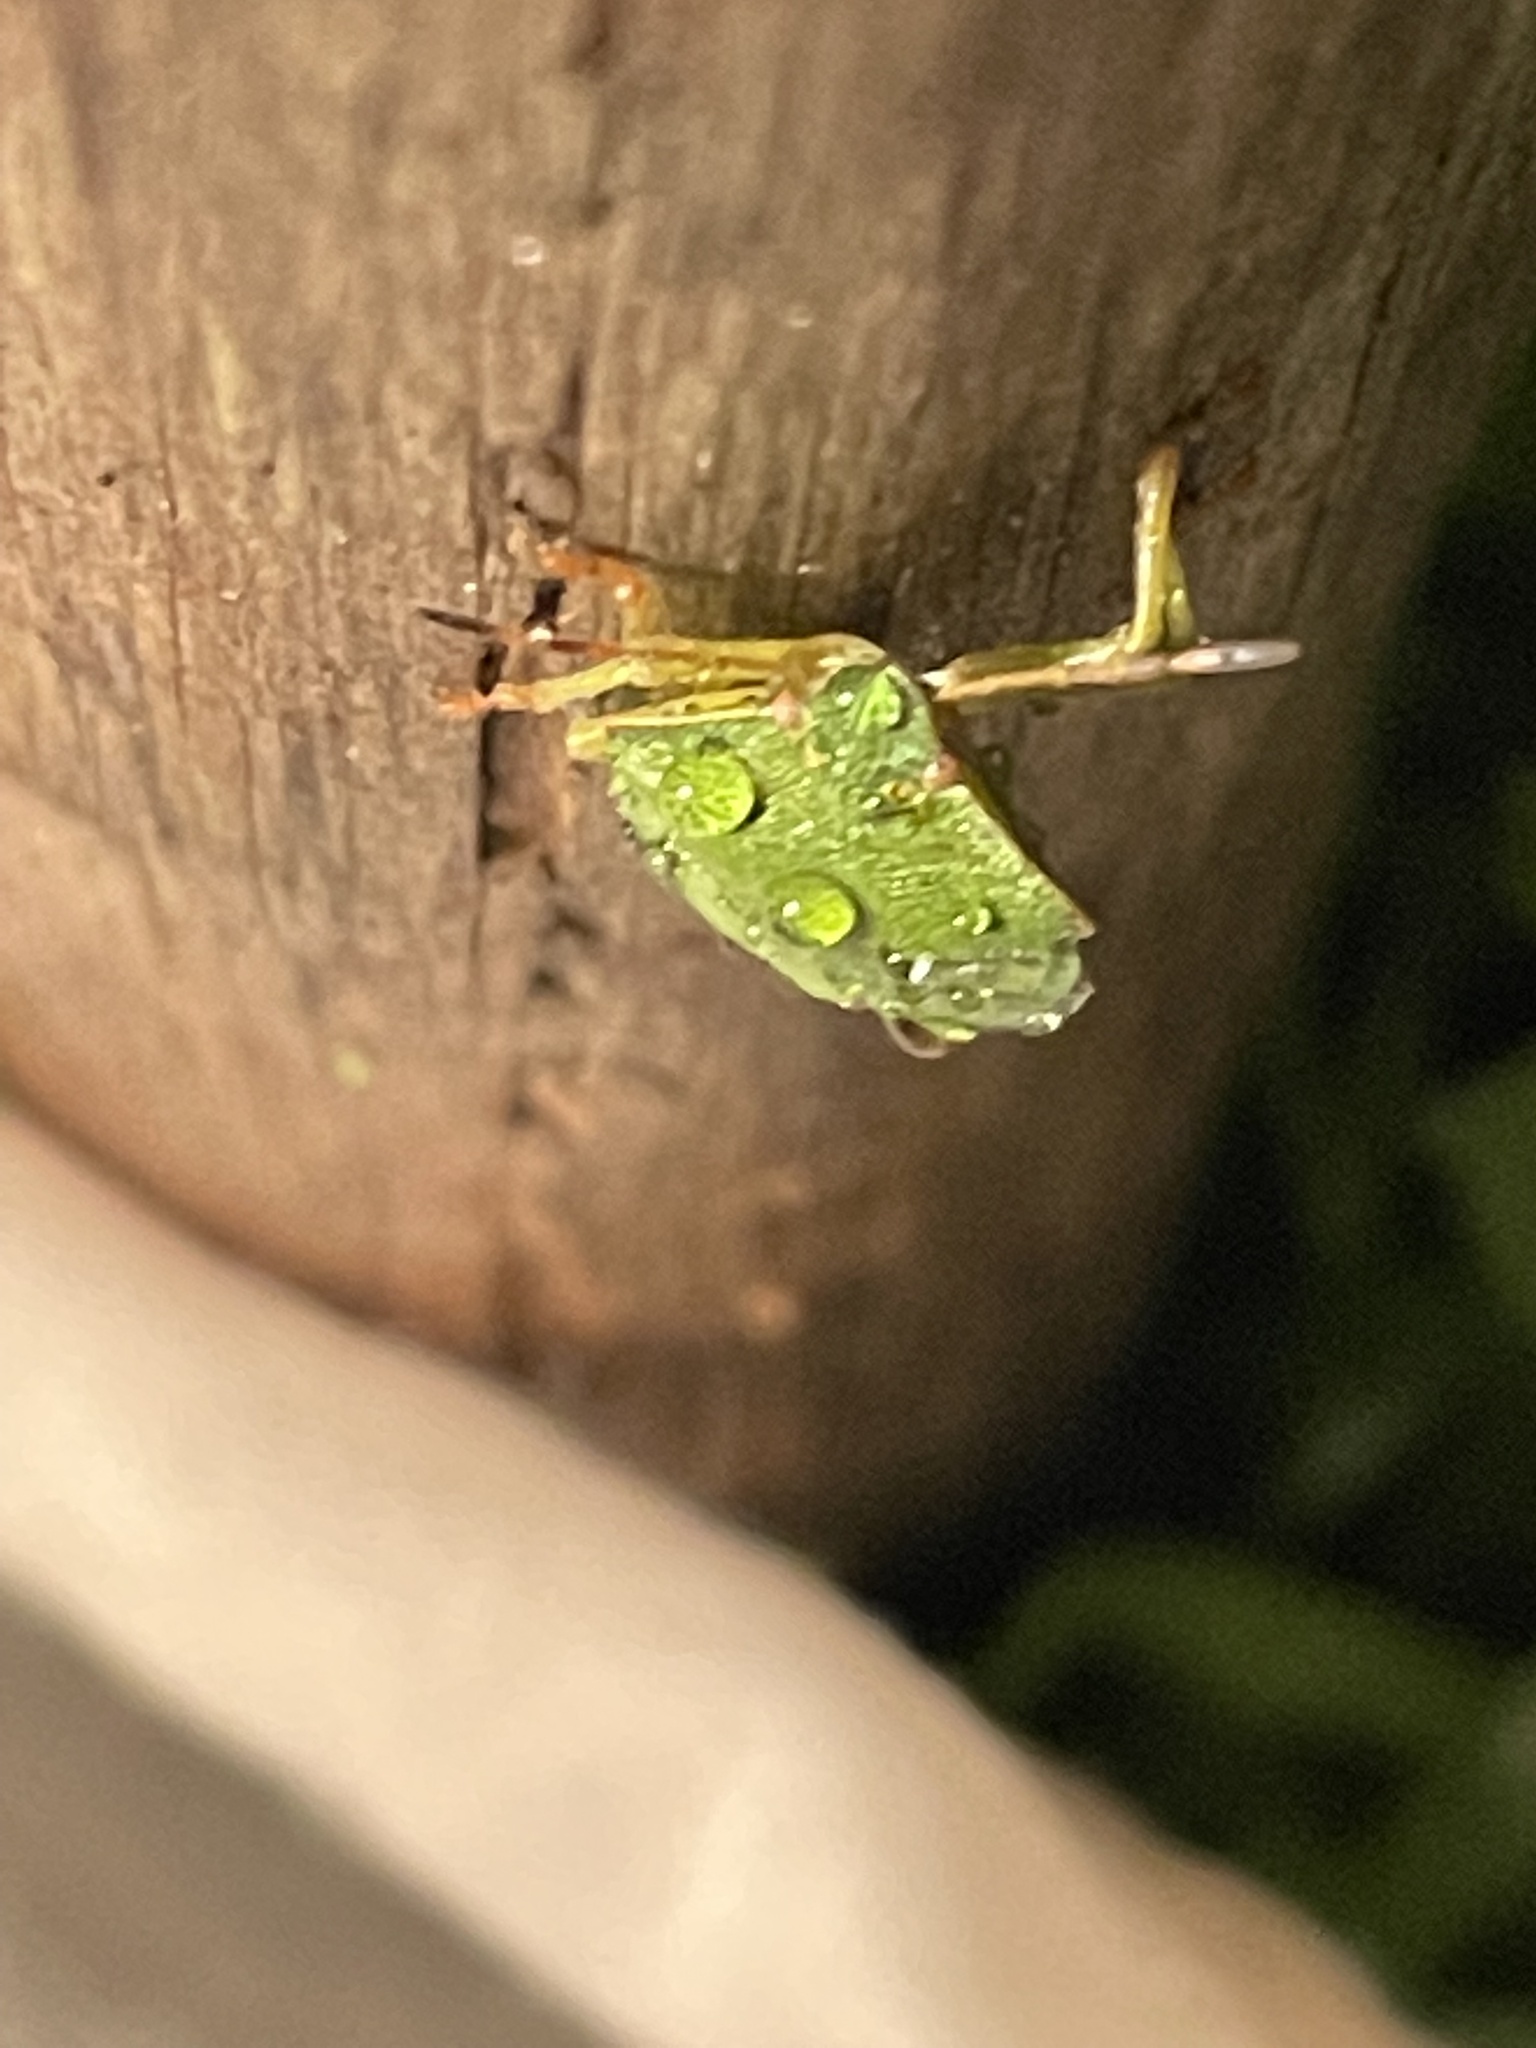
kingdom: Animalia
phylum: Arthropoda
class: Insecta
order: Hemiptera
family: Pentatomidae
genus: Palomena
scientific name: Palomena prasina
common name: Green shieldbug
